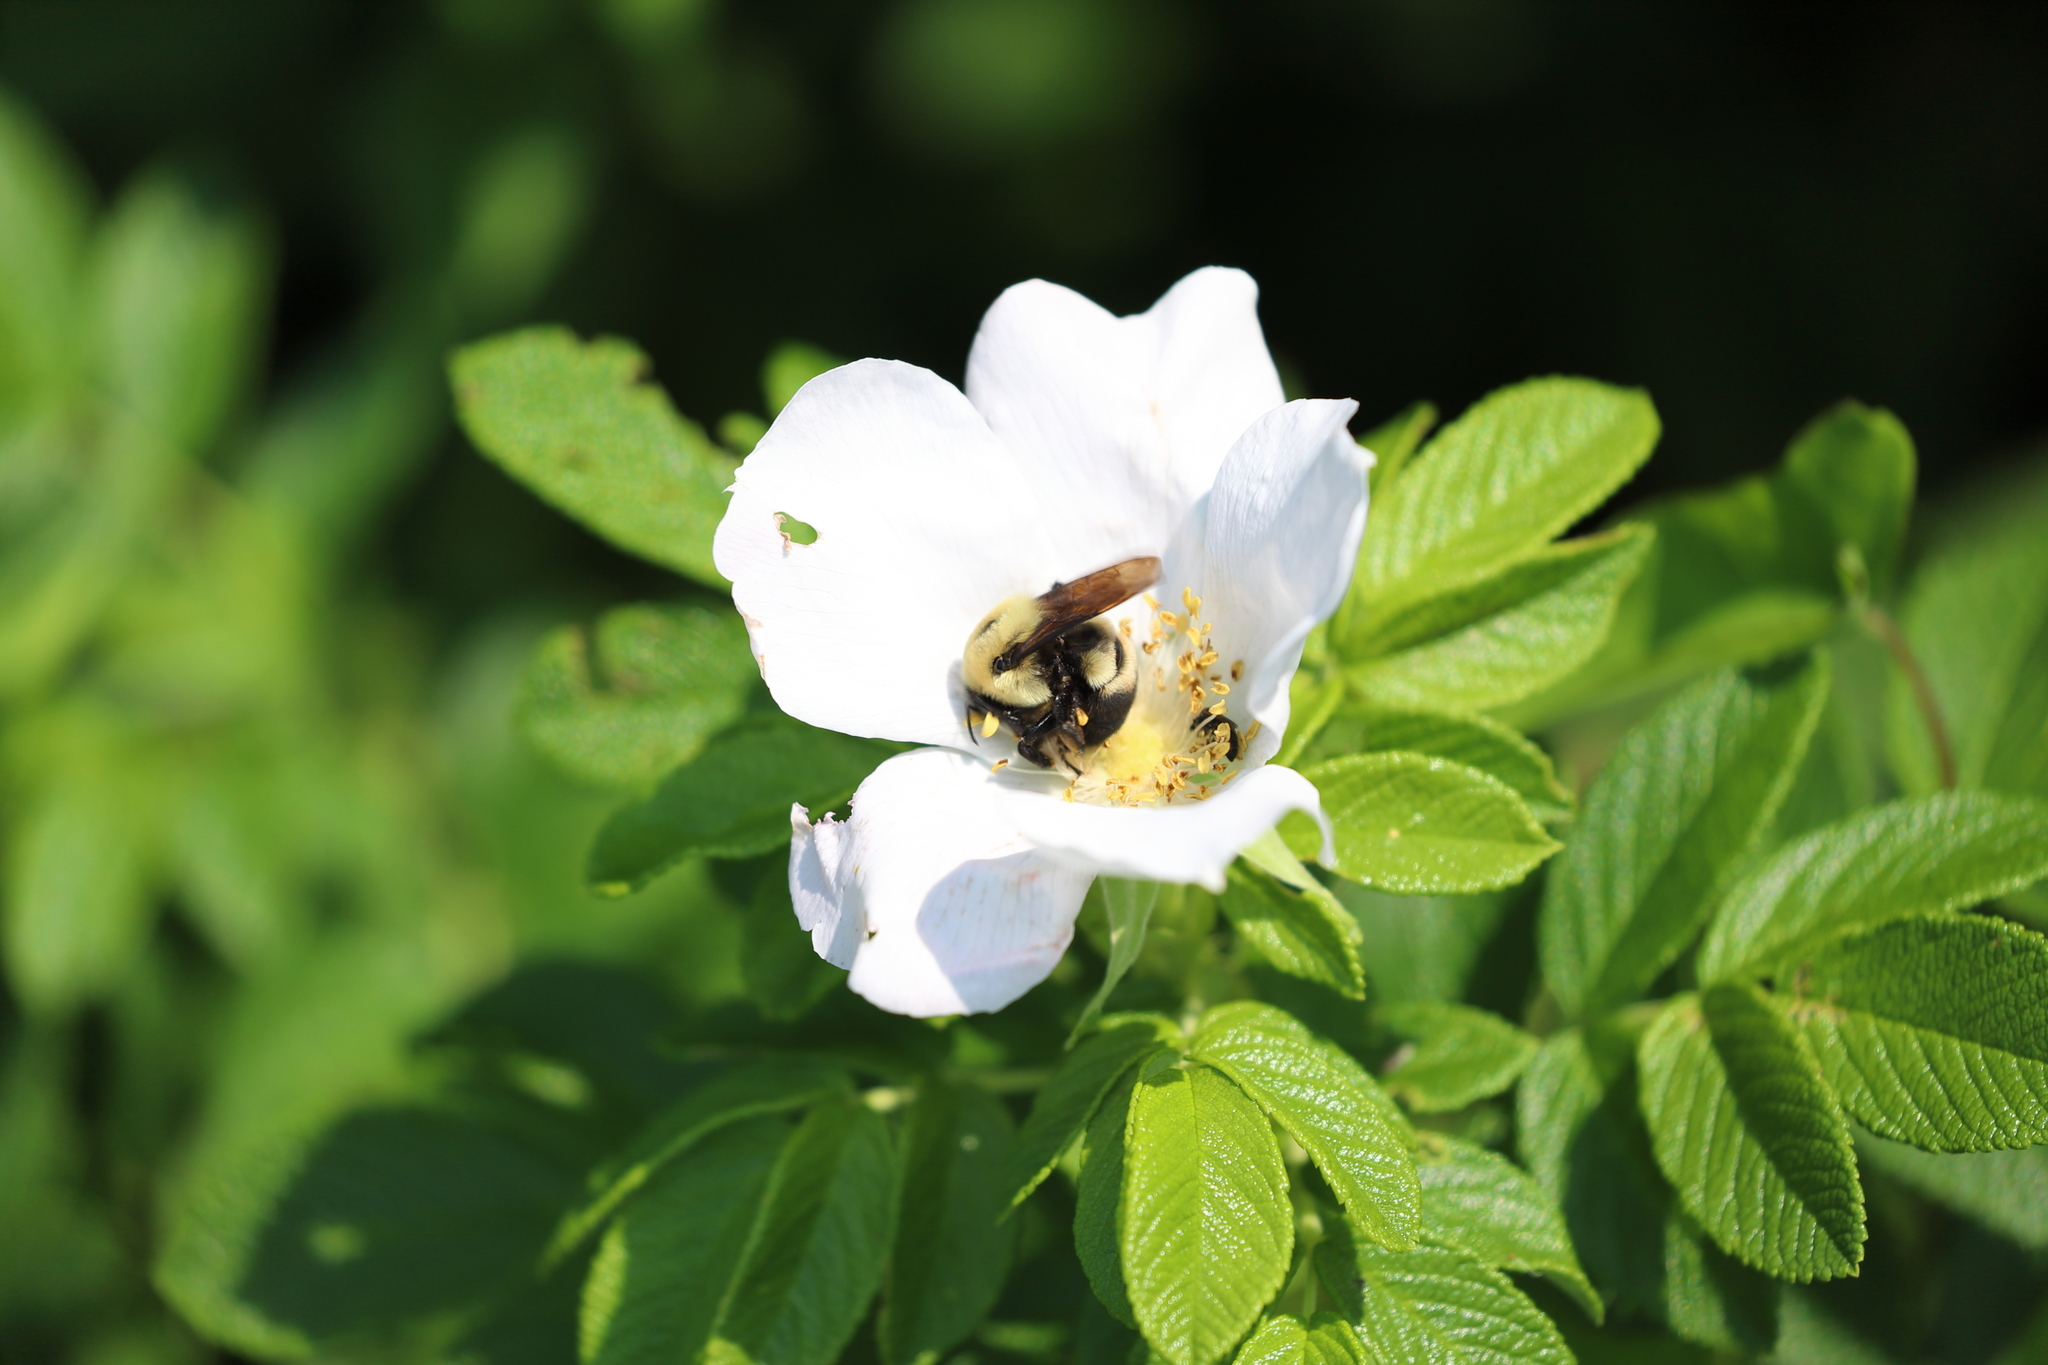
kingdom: Animalia
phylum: Arthropoda
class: Insecta
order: Hymenoptera
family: Apidae
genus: Bombus
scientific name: Bombus griseocollis
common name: Brown-belted bumble bee
